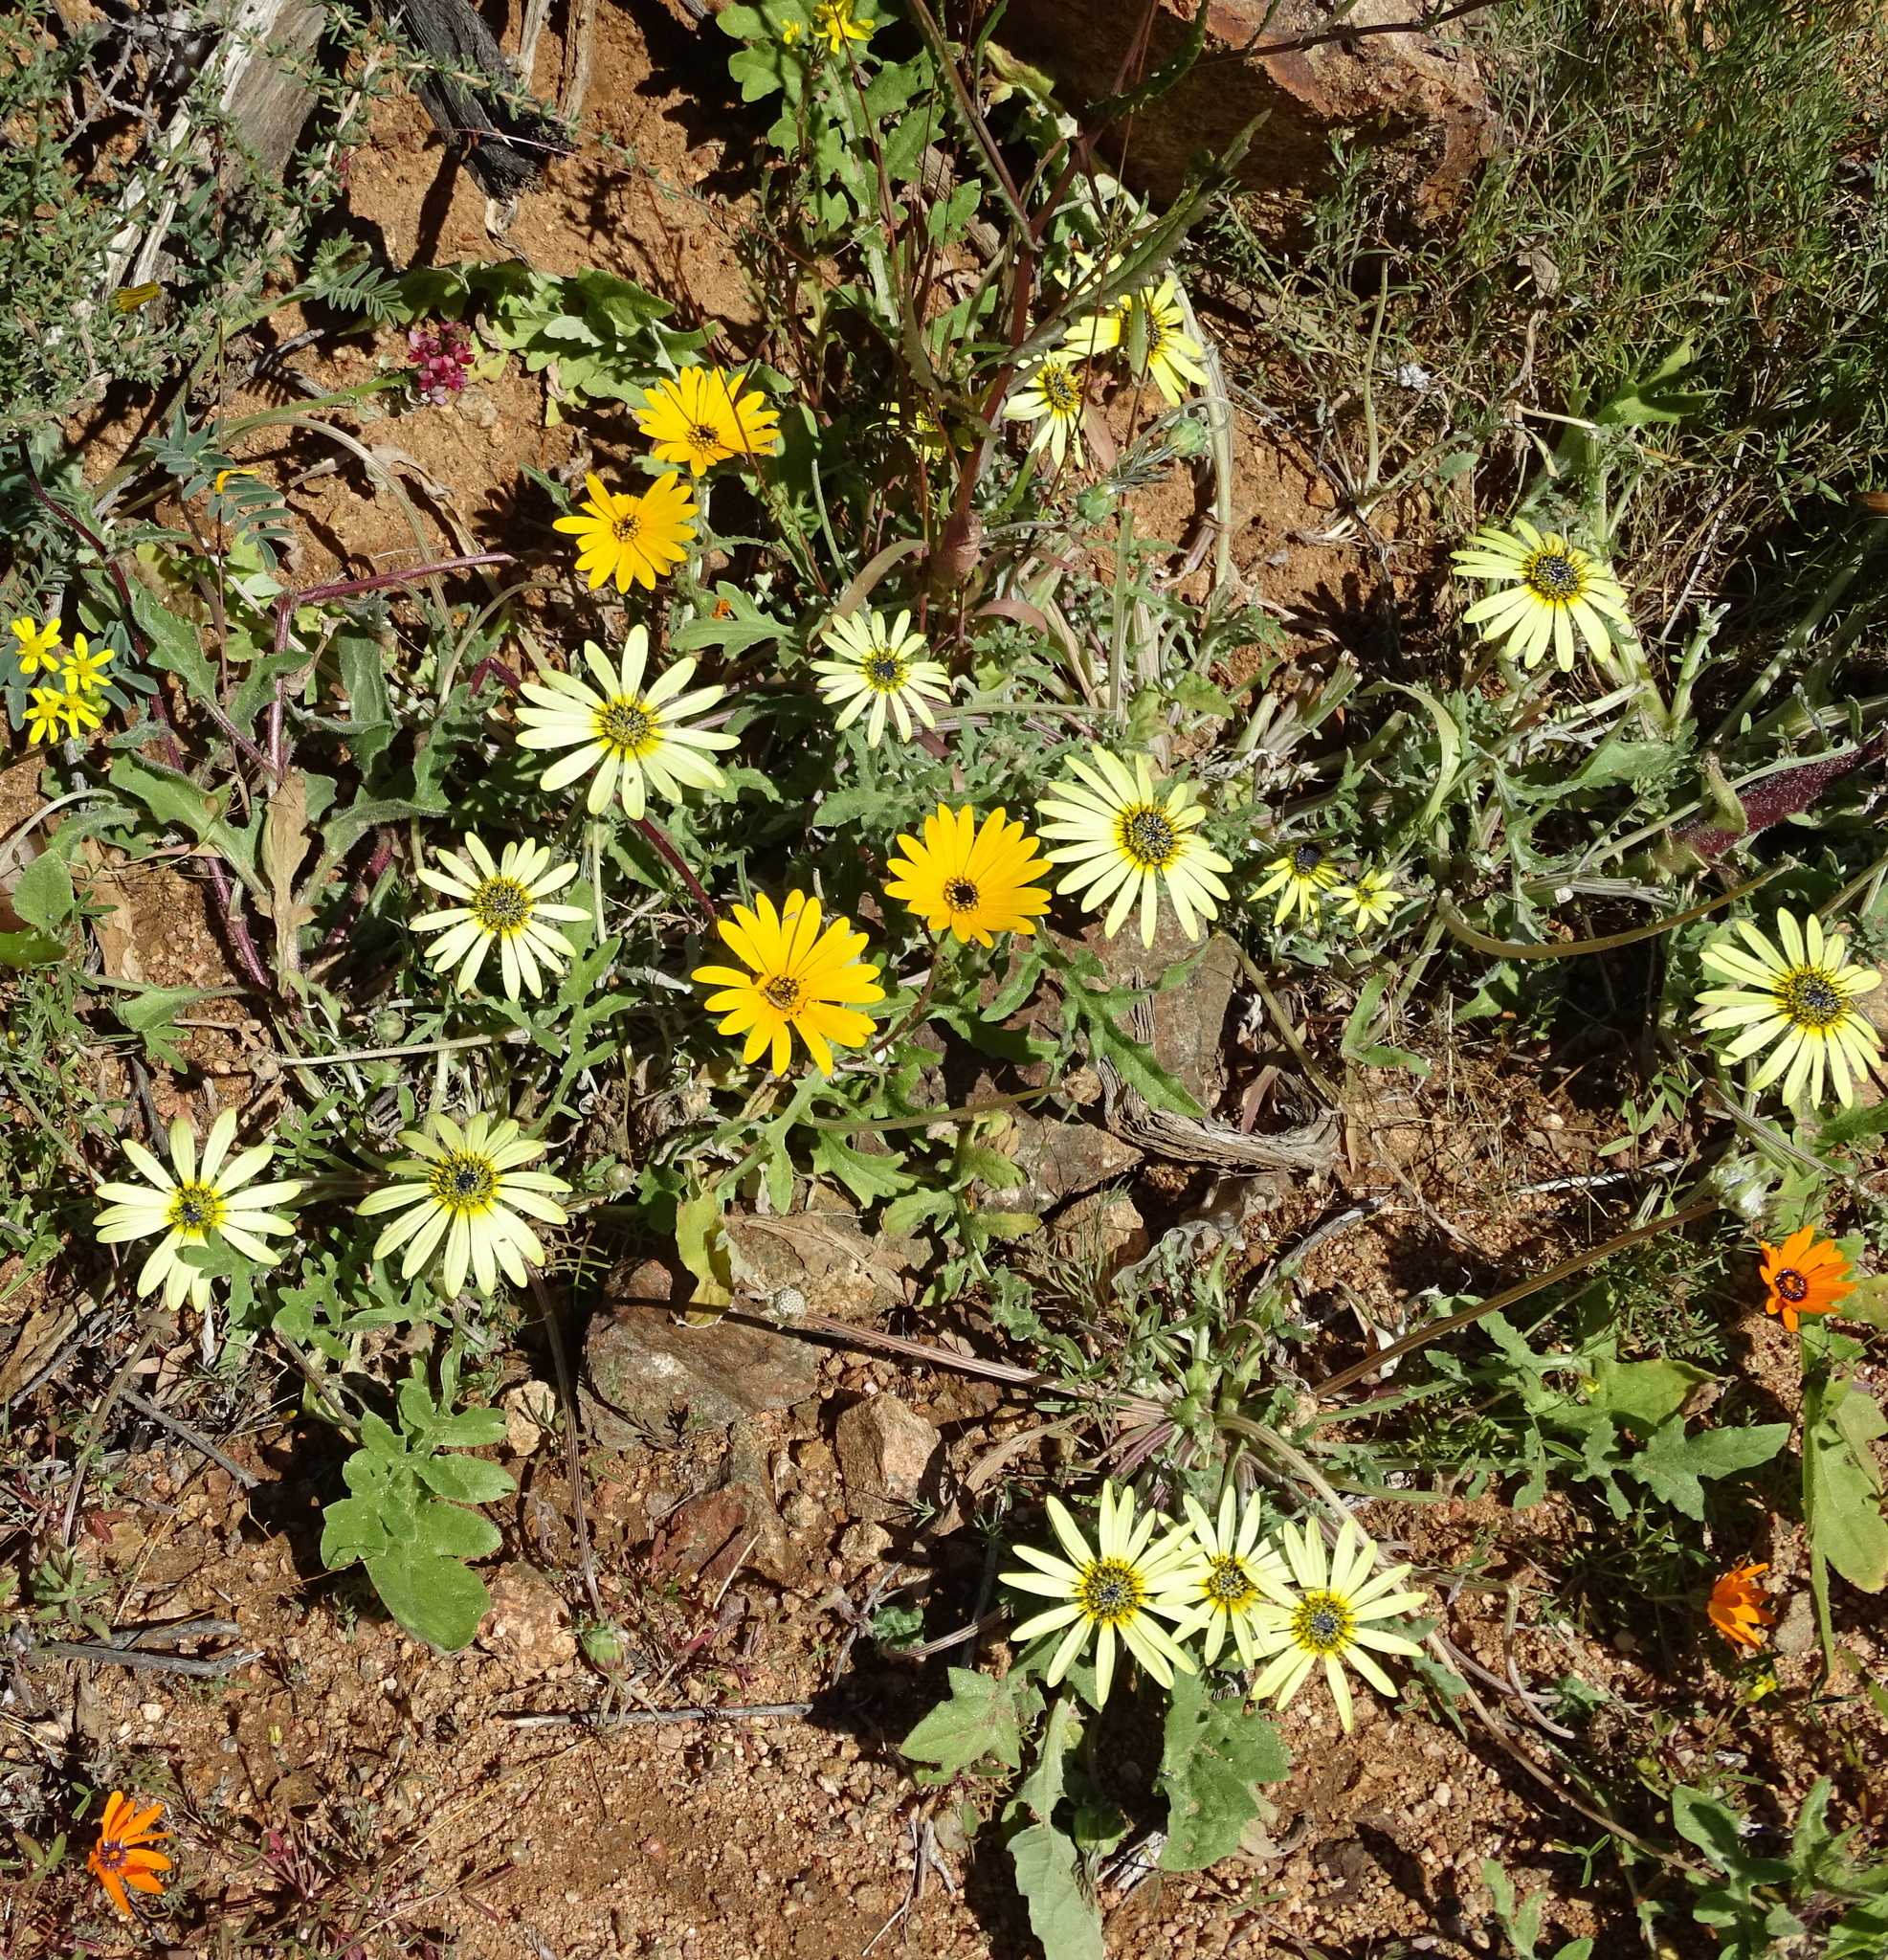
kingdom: Plantae
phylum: Tracheophyta
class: Magnoliopsida
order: Asterales
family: Asteraceae
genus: Arctotheca
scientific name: Arctotheca calendula
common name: Capeweed
